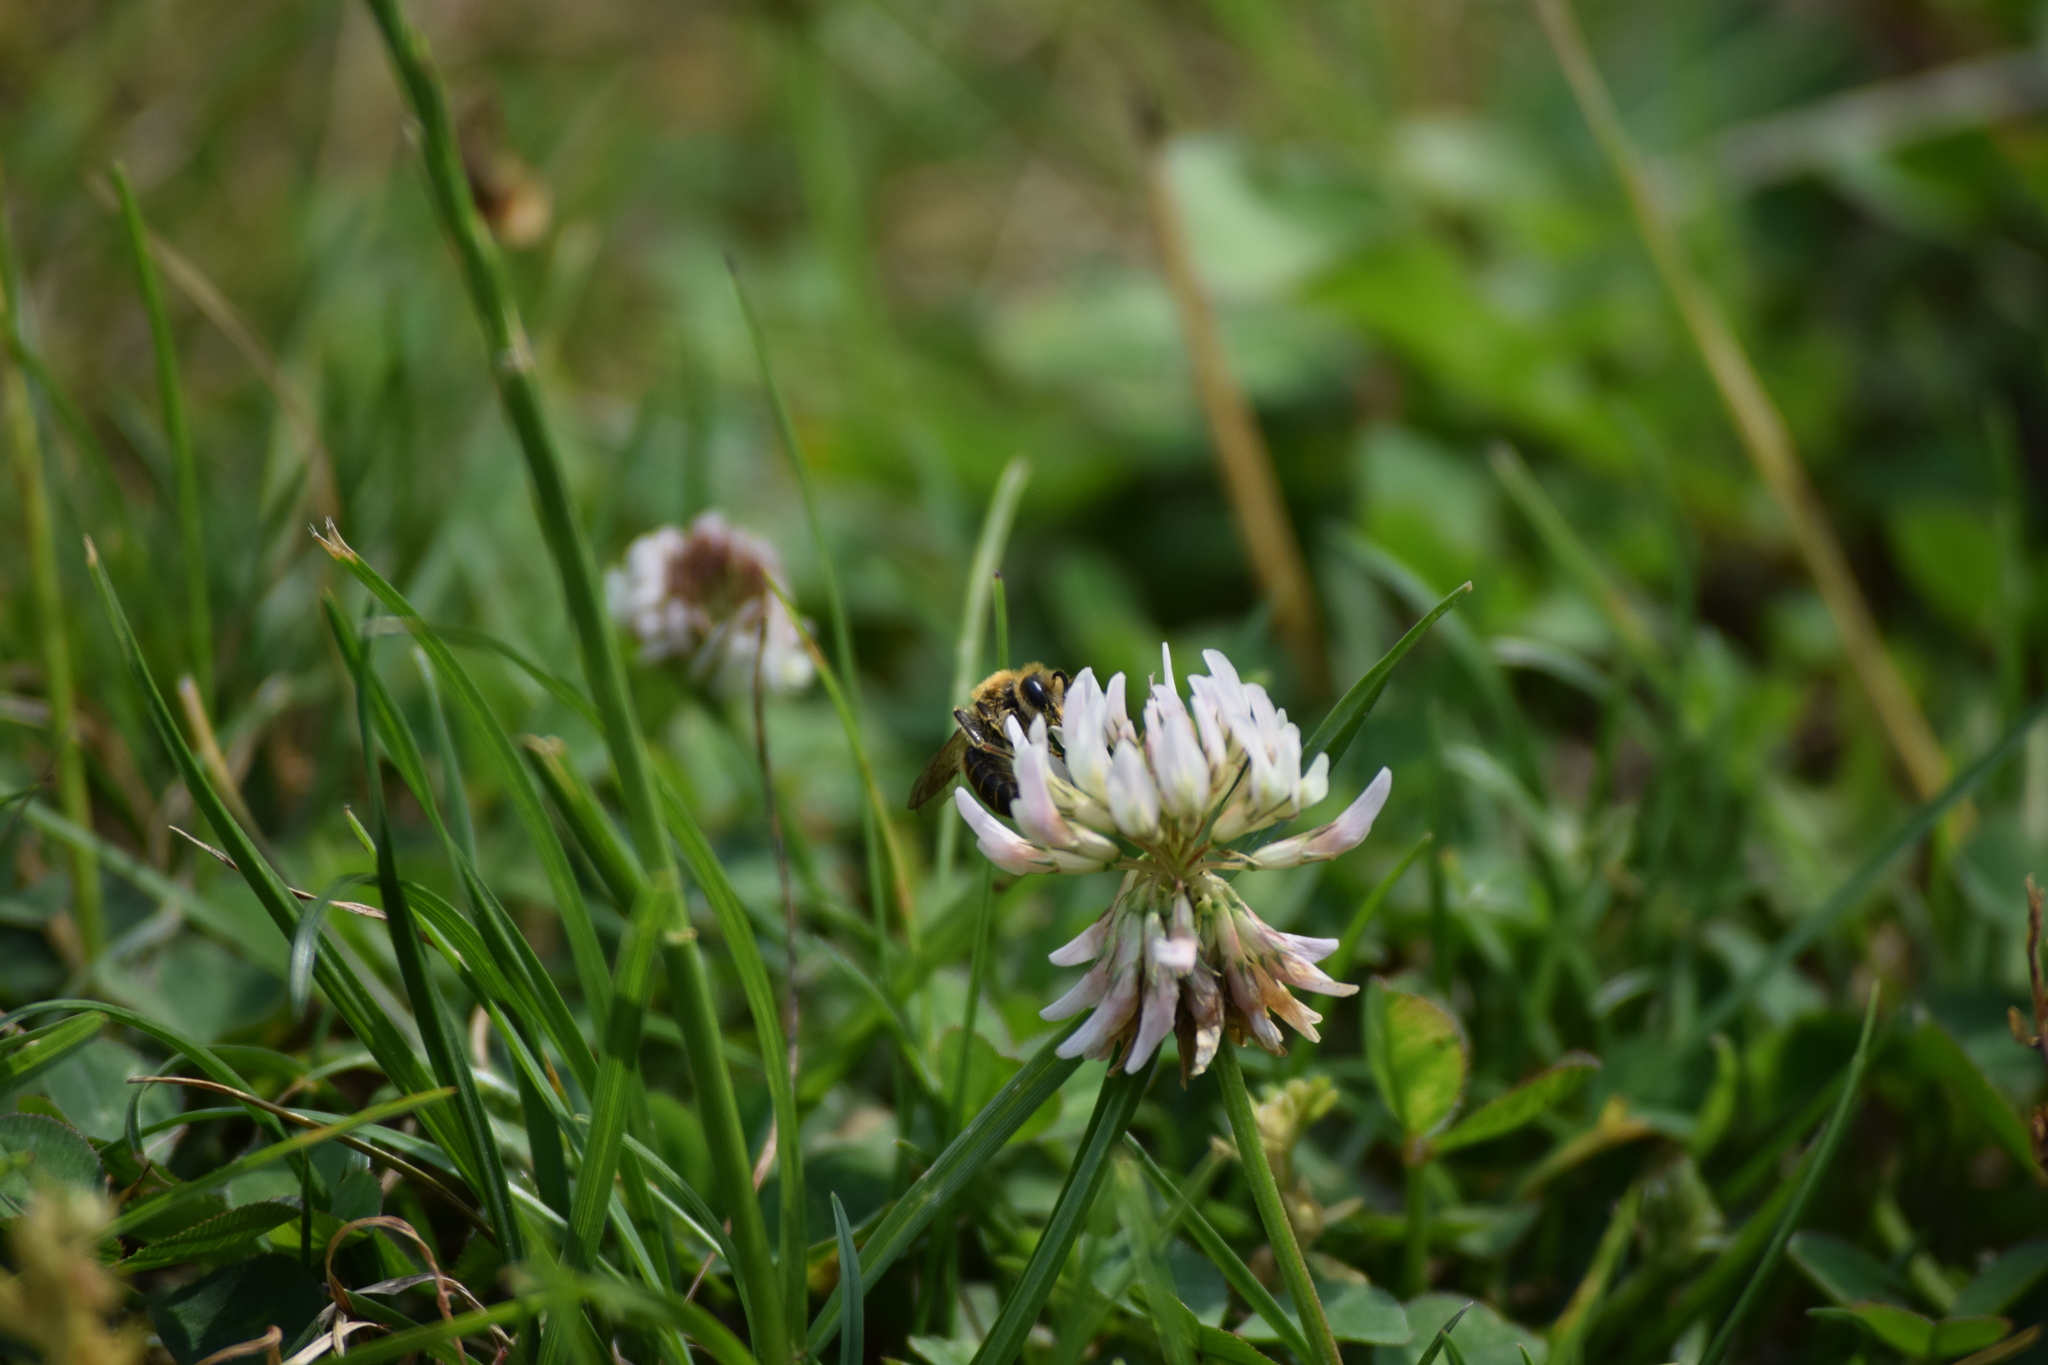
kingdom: Animalia
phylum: Arthropoda
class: Insecta
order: Hymenoptera
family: Andrenidae
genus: Andrena
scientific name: Andrena wilkella
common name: Wilke's mining bee
